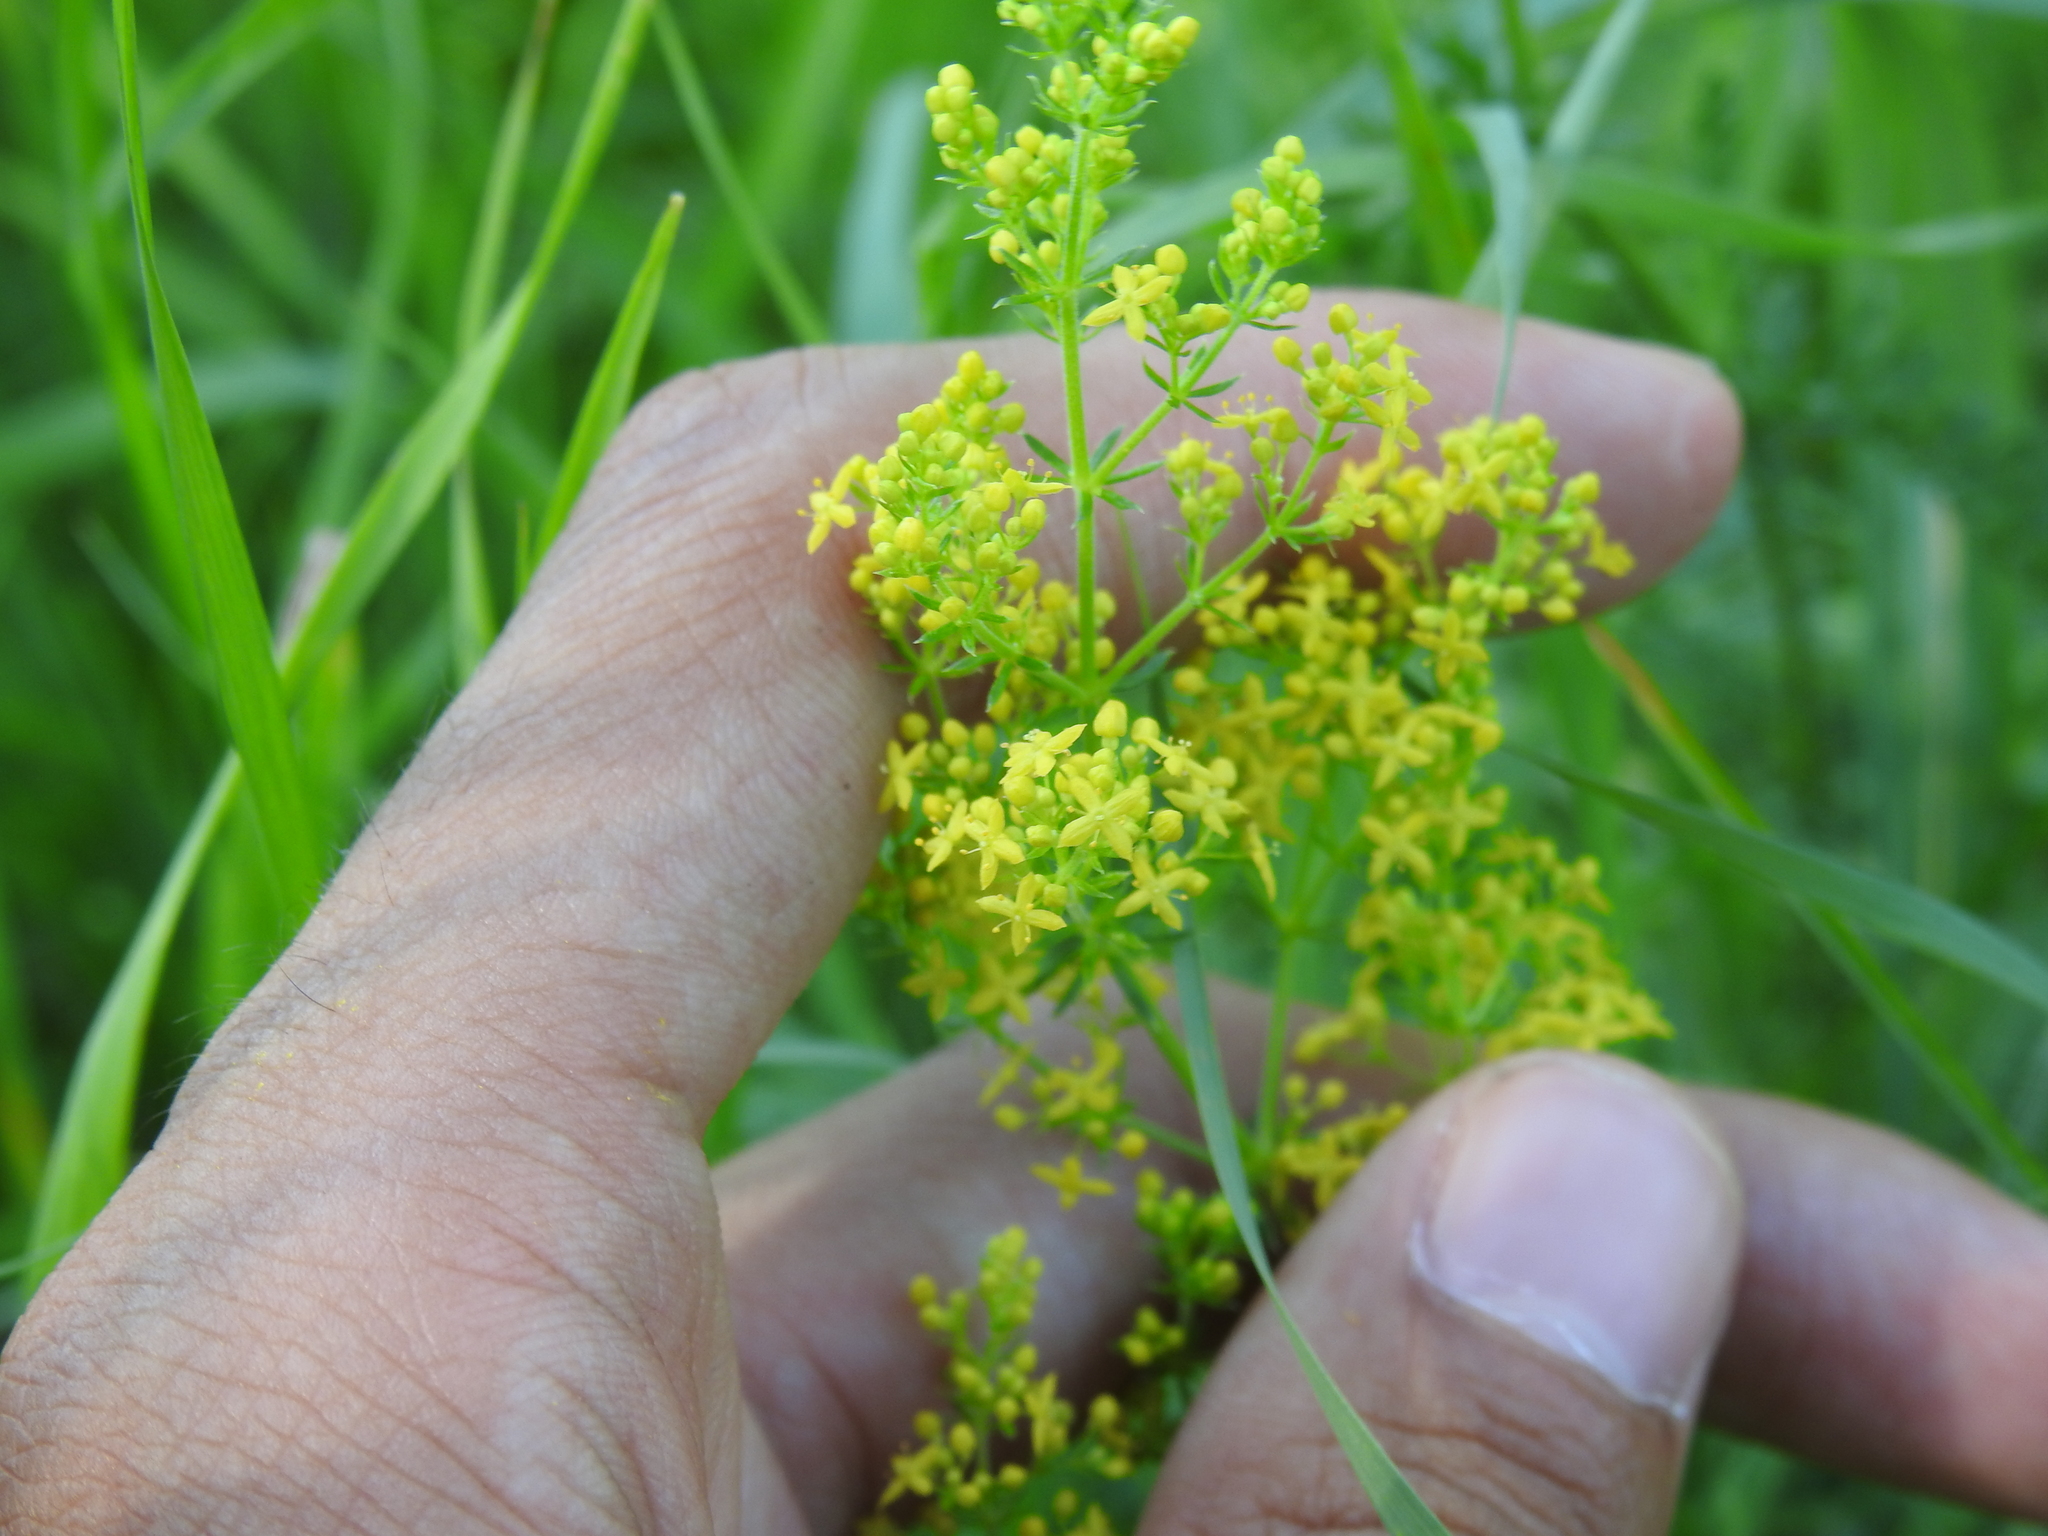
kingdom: Plantae
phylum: Tracheophyta
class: Magnoliopsida
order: Gentianales
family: Rubiaceae
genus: Galium
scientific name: Galium verum
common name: Lady's bedstraw
